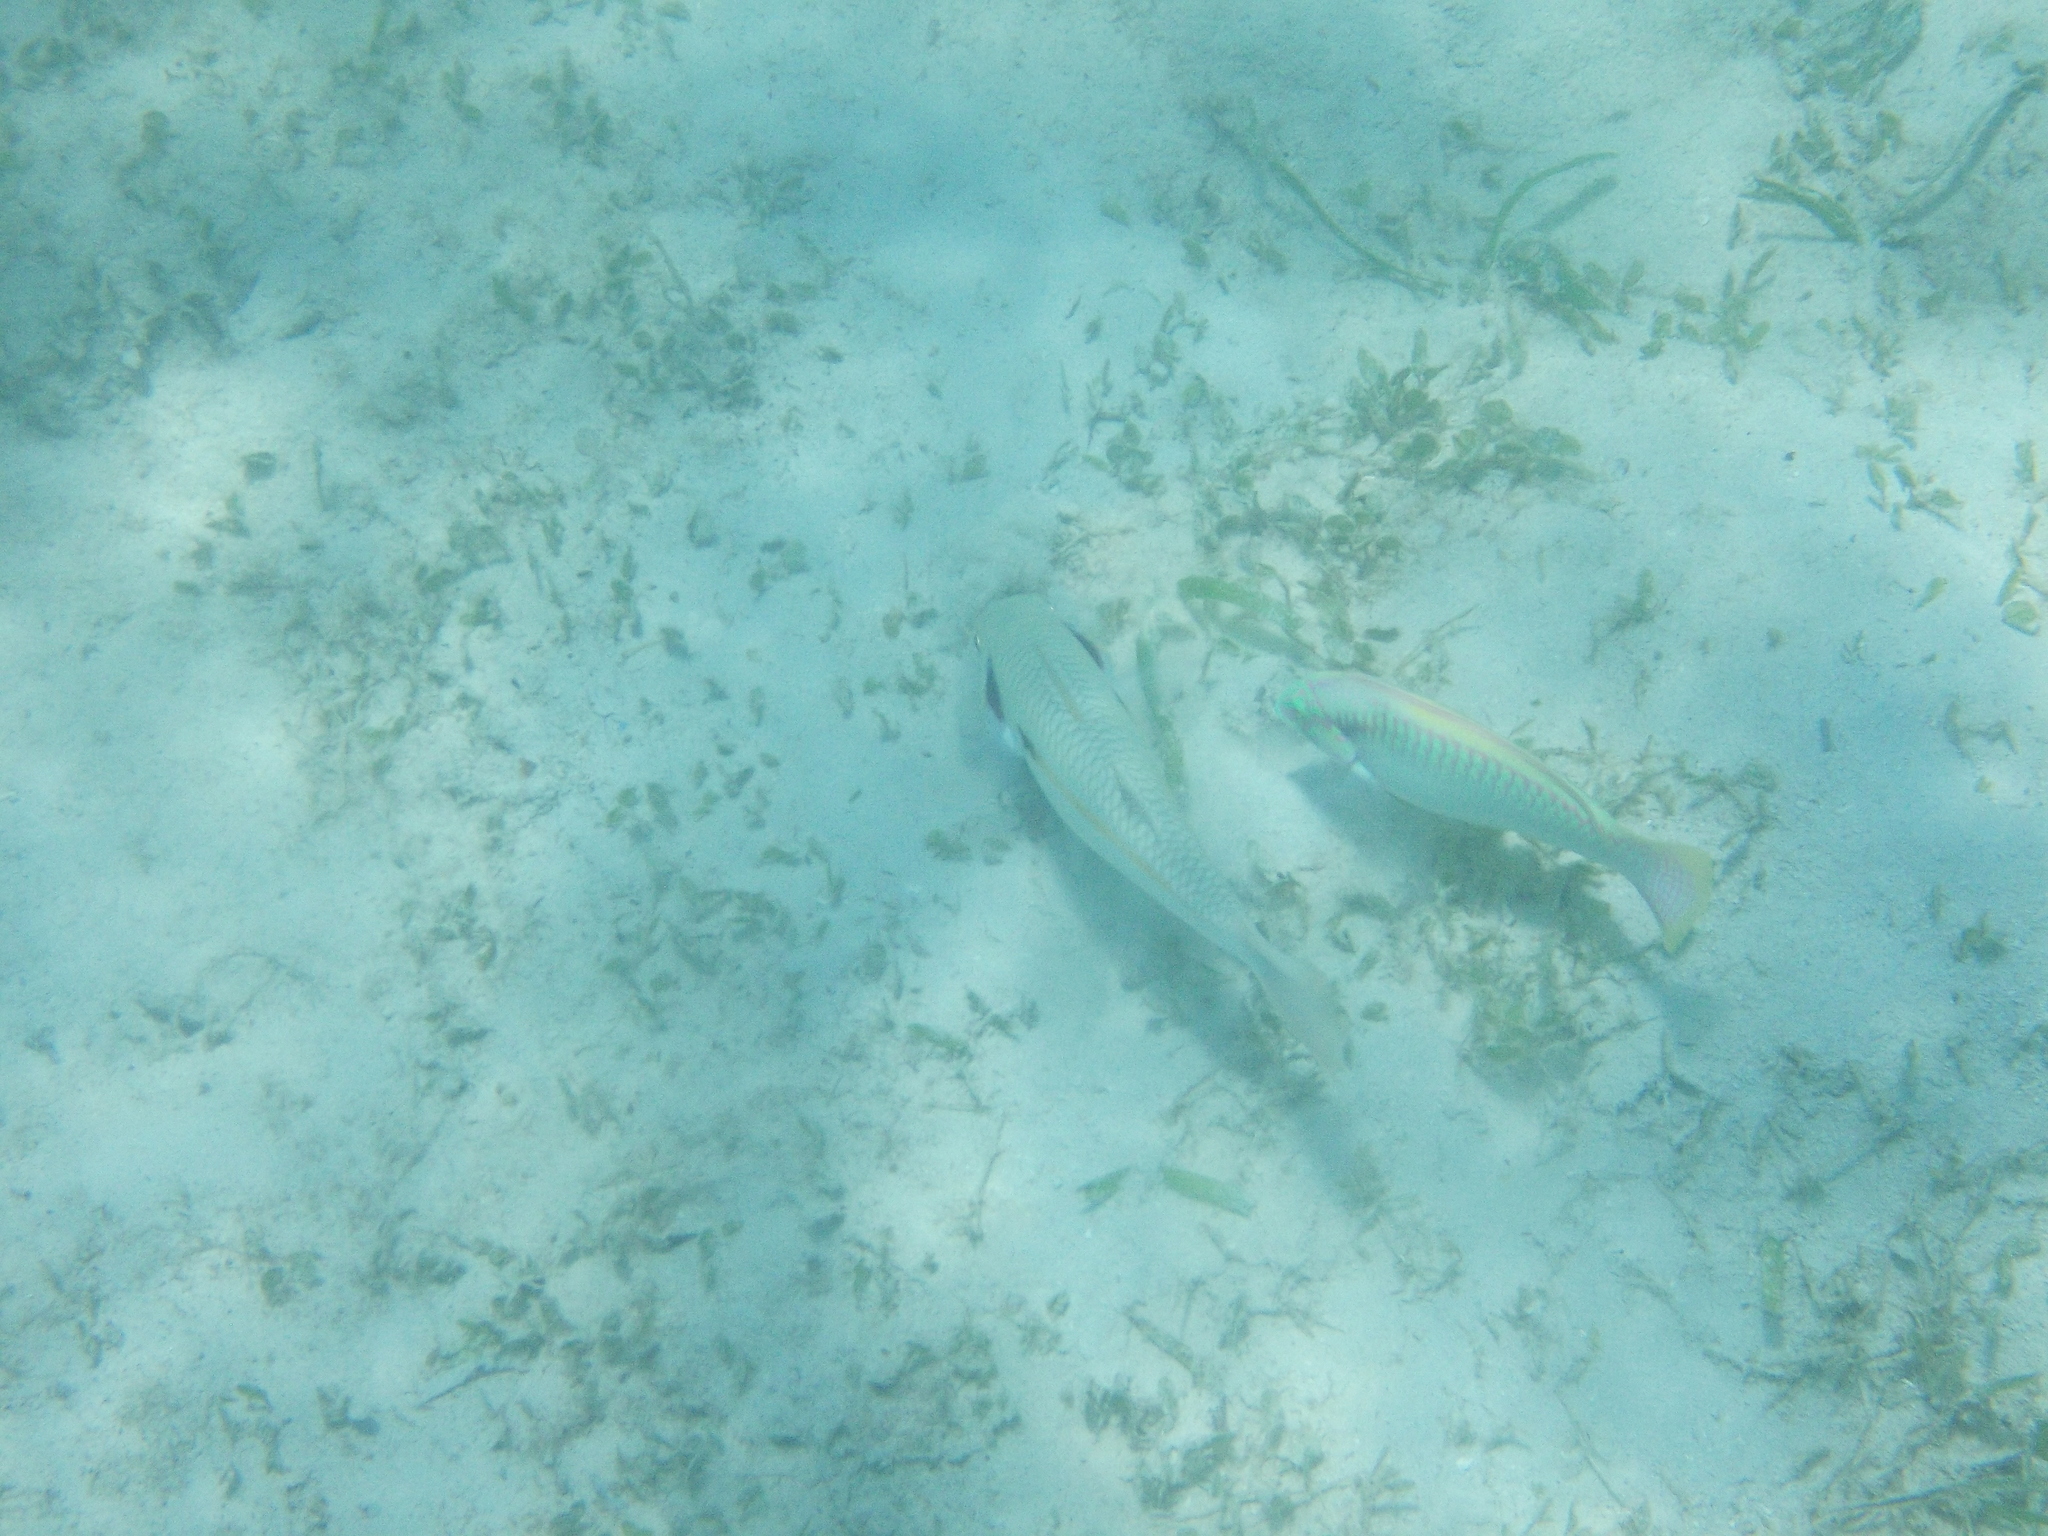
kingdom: Animalia
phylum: Chordata
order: Perciformes
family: Mullidae
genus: Mulloidichthys
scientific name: Mulloidichthys flavolineatus
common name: Yellowstripe goatfish
